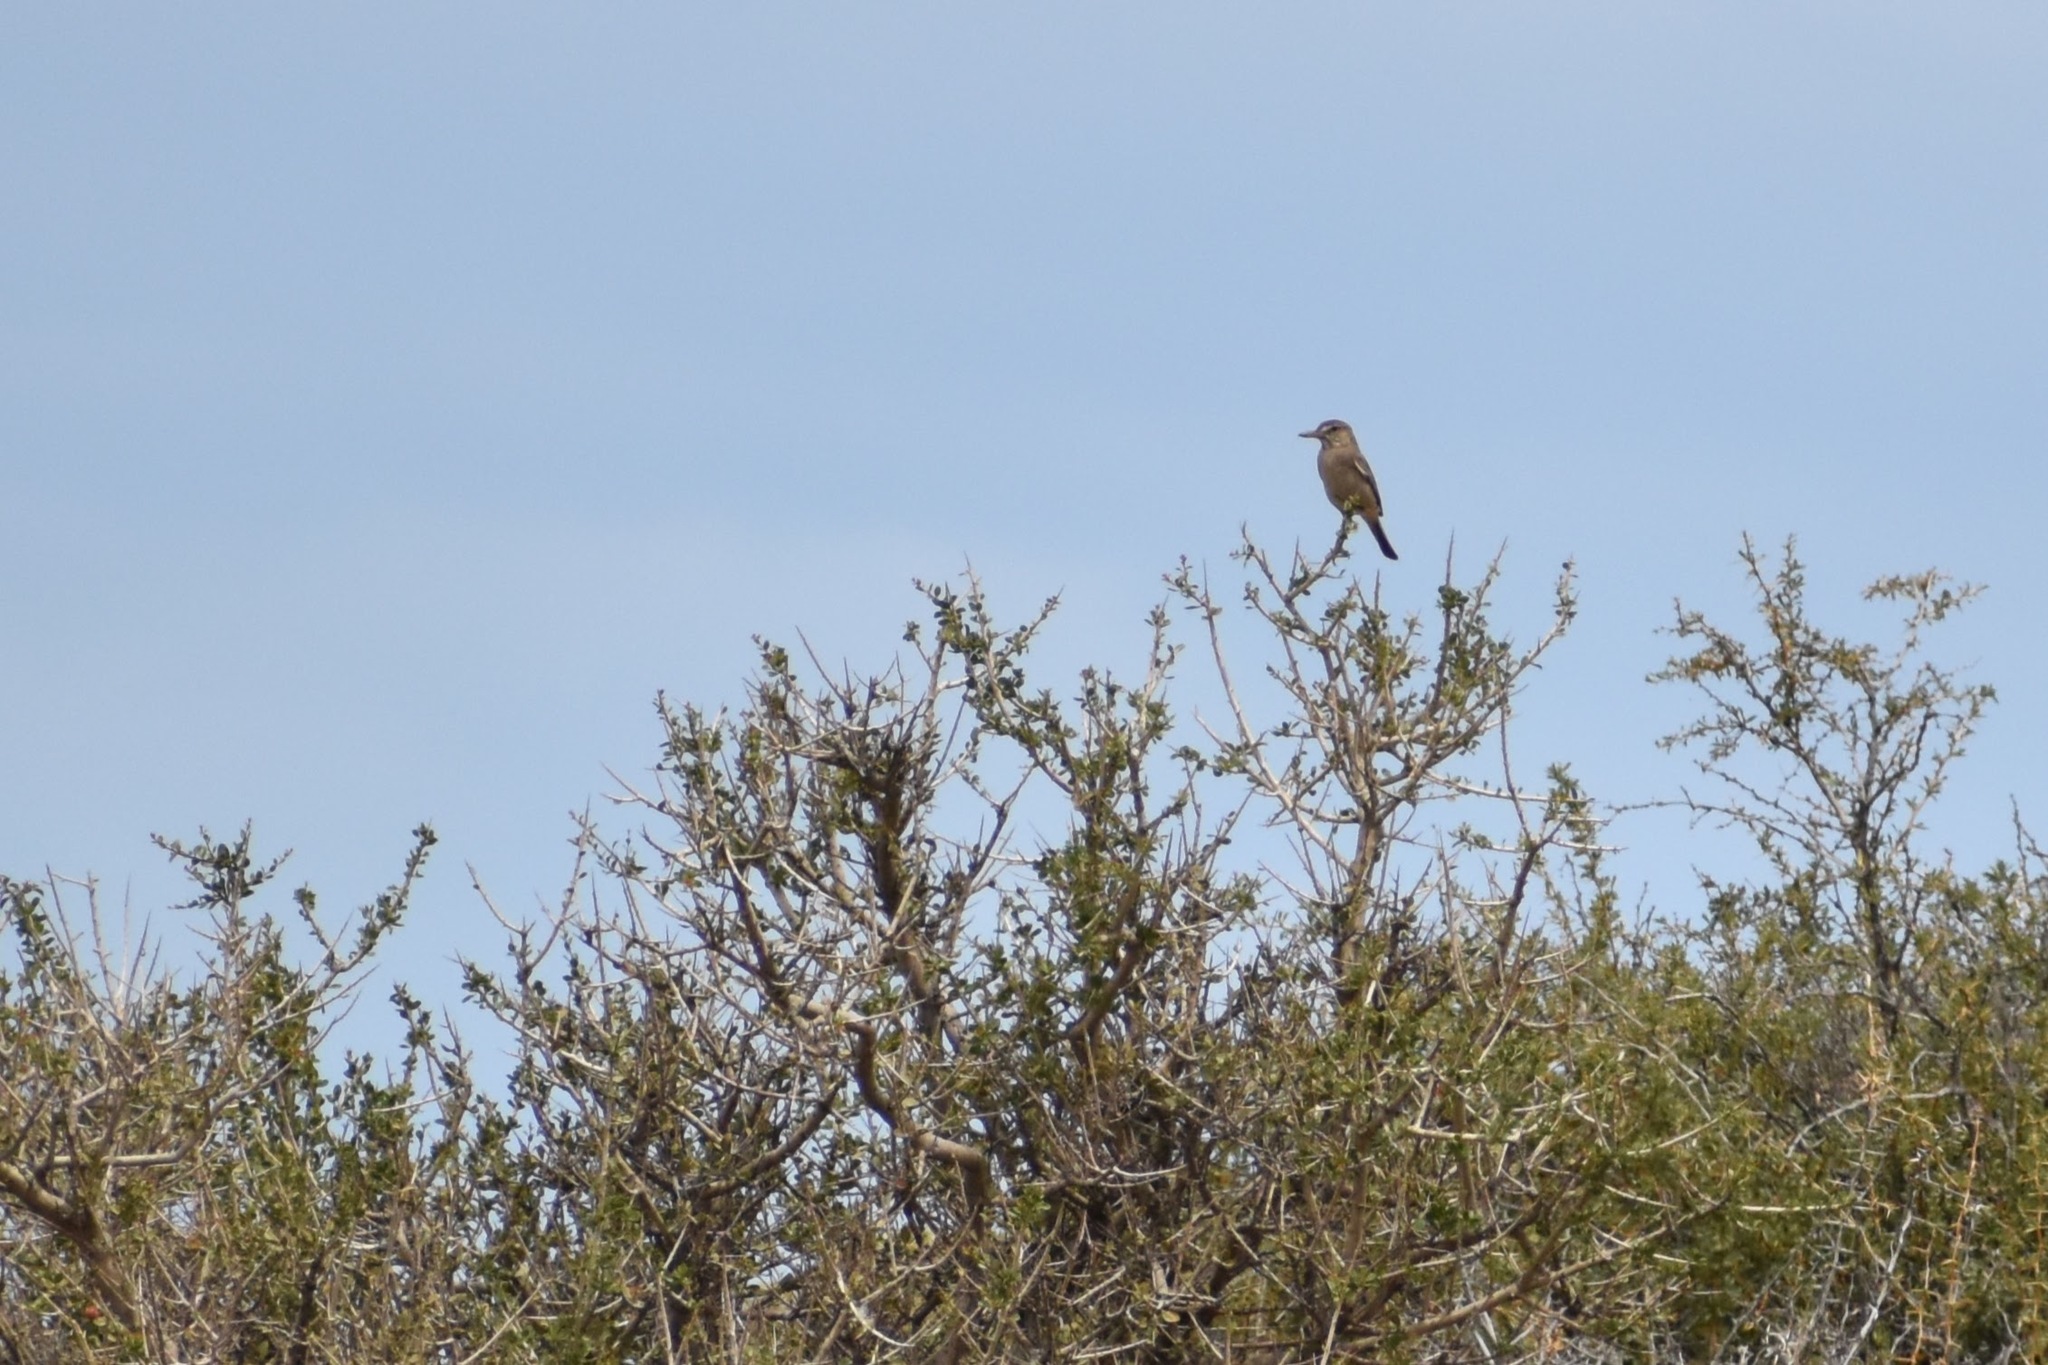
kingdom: Animalia
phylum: Chordata
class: Aves
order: Passeriformes
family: Tyrannidae
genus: Agriornis
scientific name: Agriornis micropterus
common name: Grey-bellied shrike-tyrant
